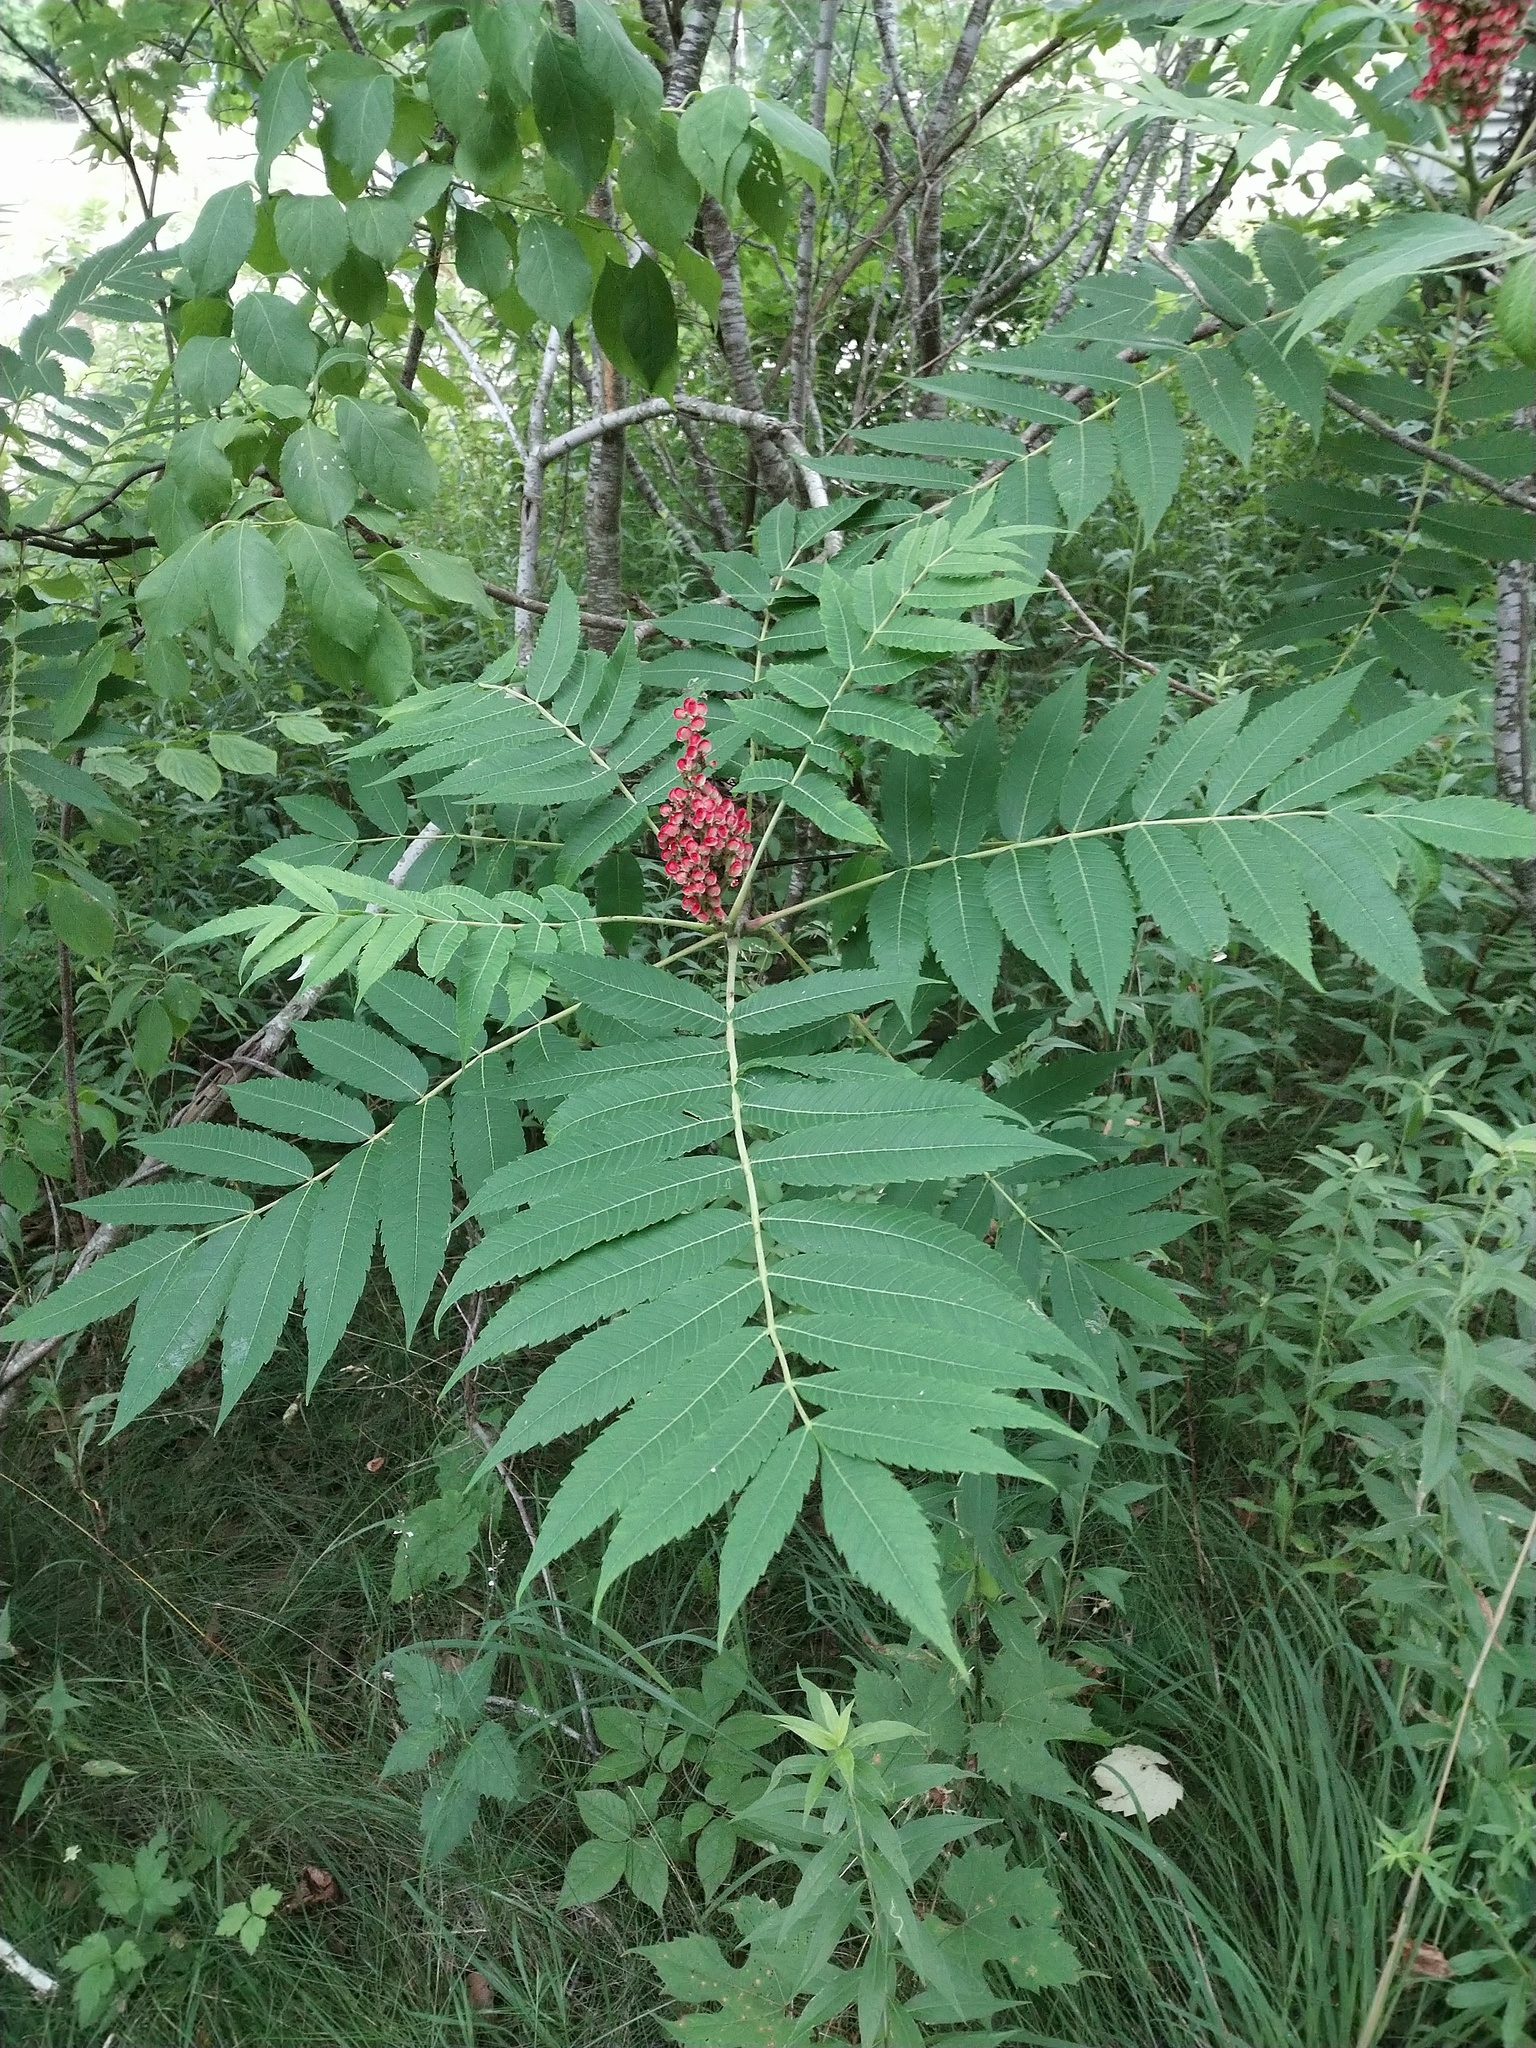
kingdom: Plantae
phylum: Tracheophyta
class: Magnoliopsida
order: Sapindales
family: Anacardiaceae
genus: Rhus
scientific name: Rhus glabra
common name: Scarlet sumac
